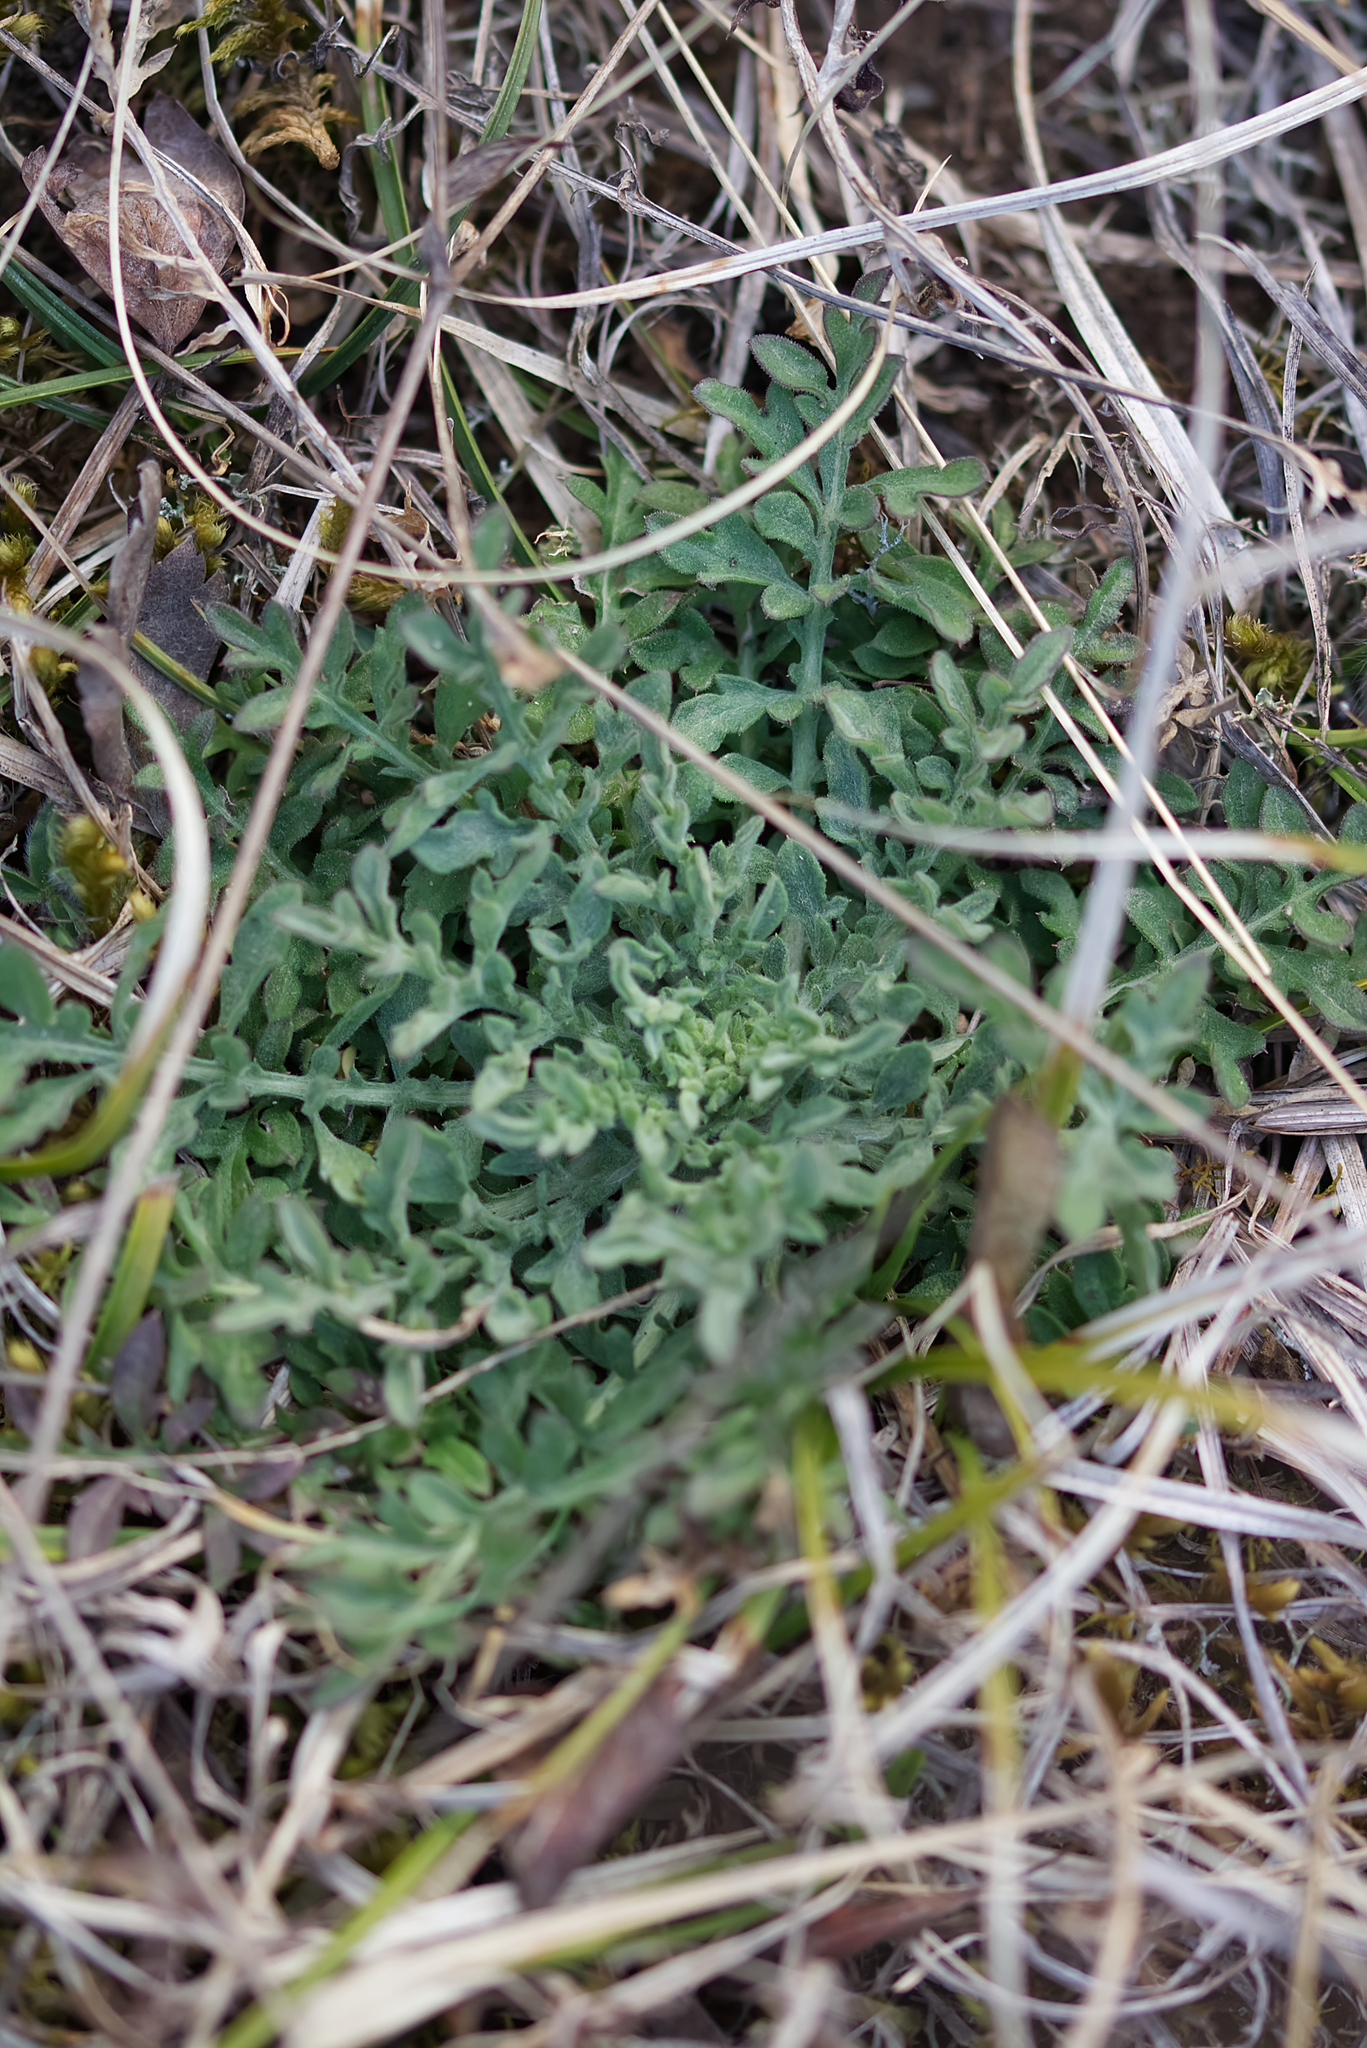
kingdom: Plantae
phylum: Tracheophyta
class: Magnoliopsida
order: Asterales
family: Asteraceae
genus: Centaurea
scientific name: Centaurea stoebe
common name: Spotted knapweed
